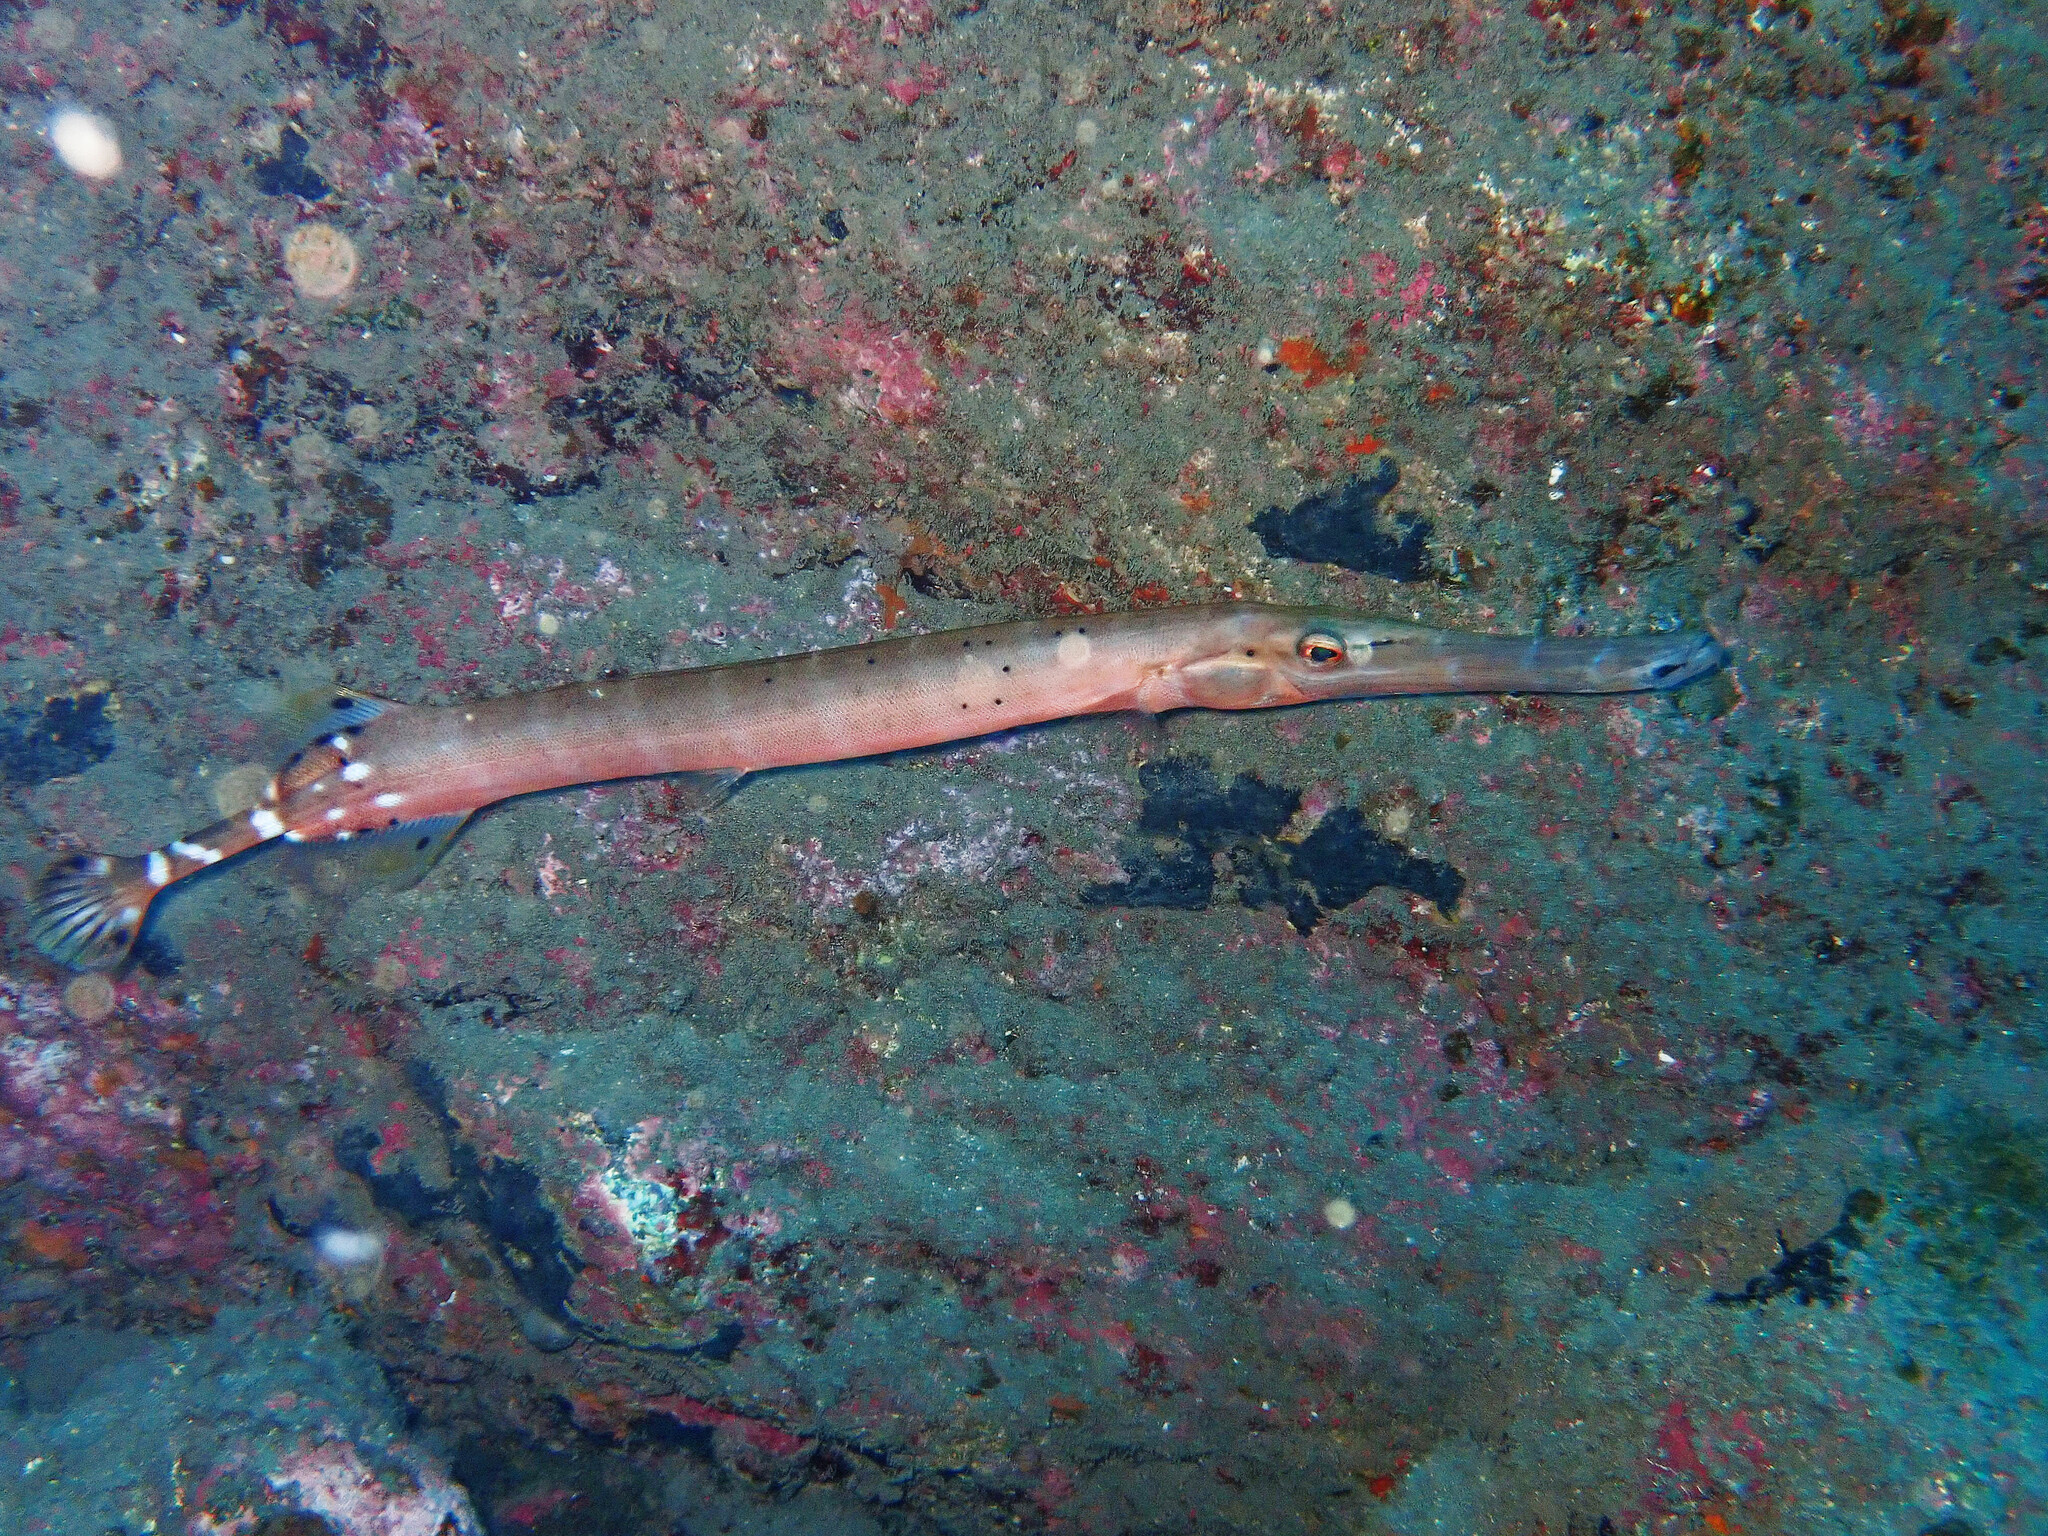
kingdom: Animalia
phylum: Chordata
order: Syngnathiformes
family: Aulostomidae
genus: Aulostomus
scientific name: Aulostomus strigosus
